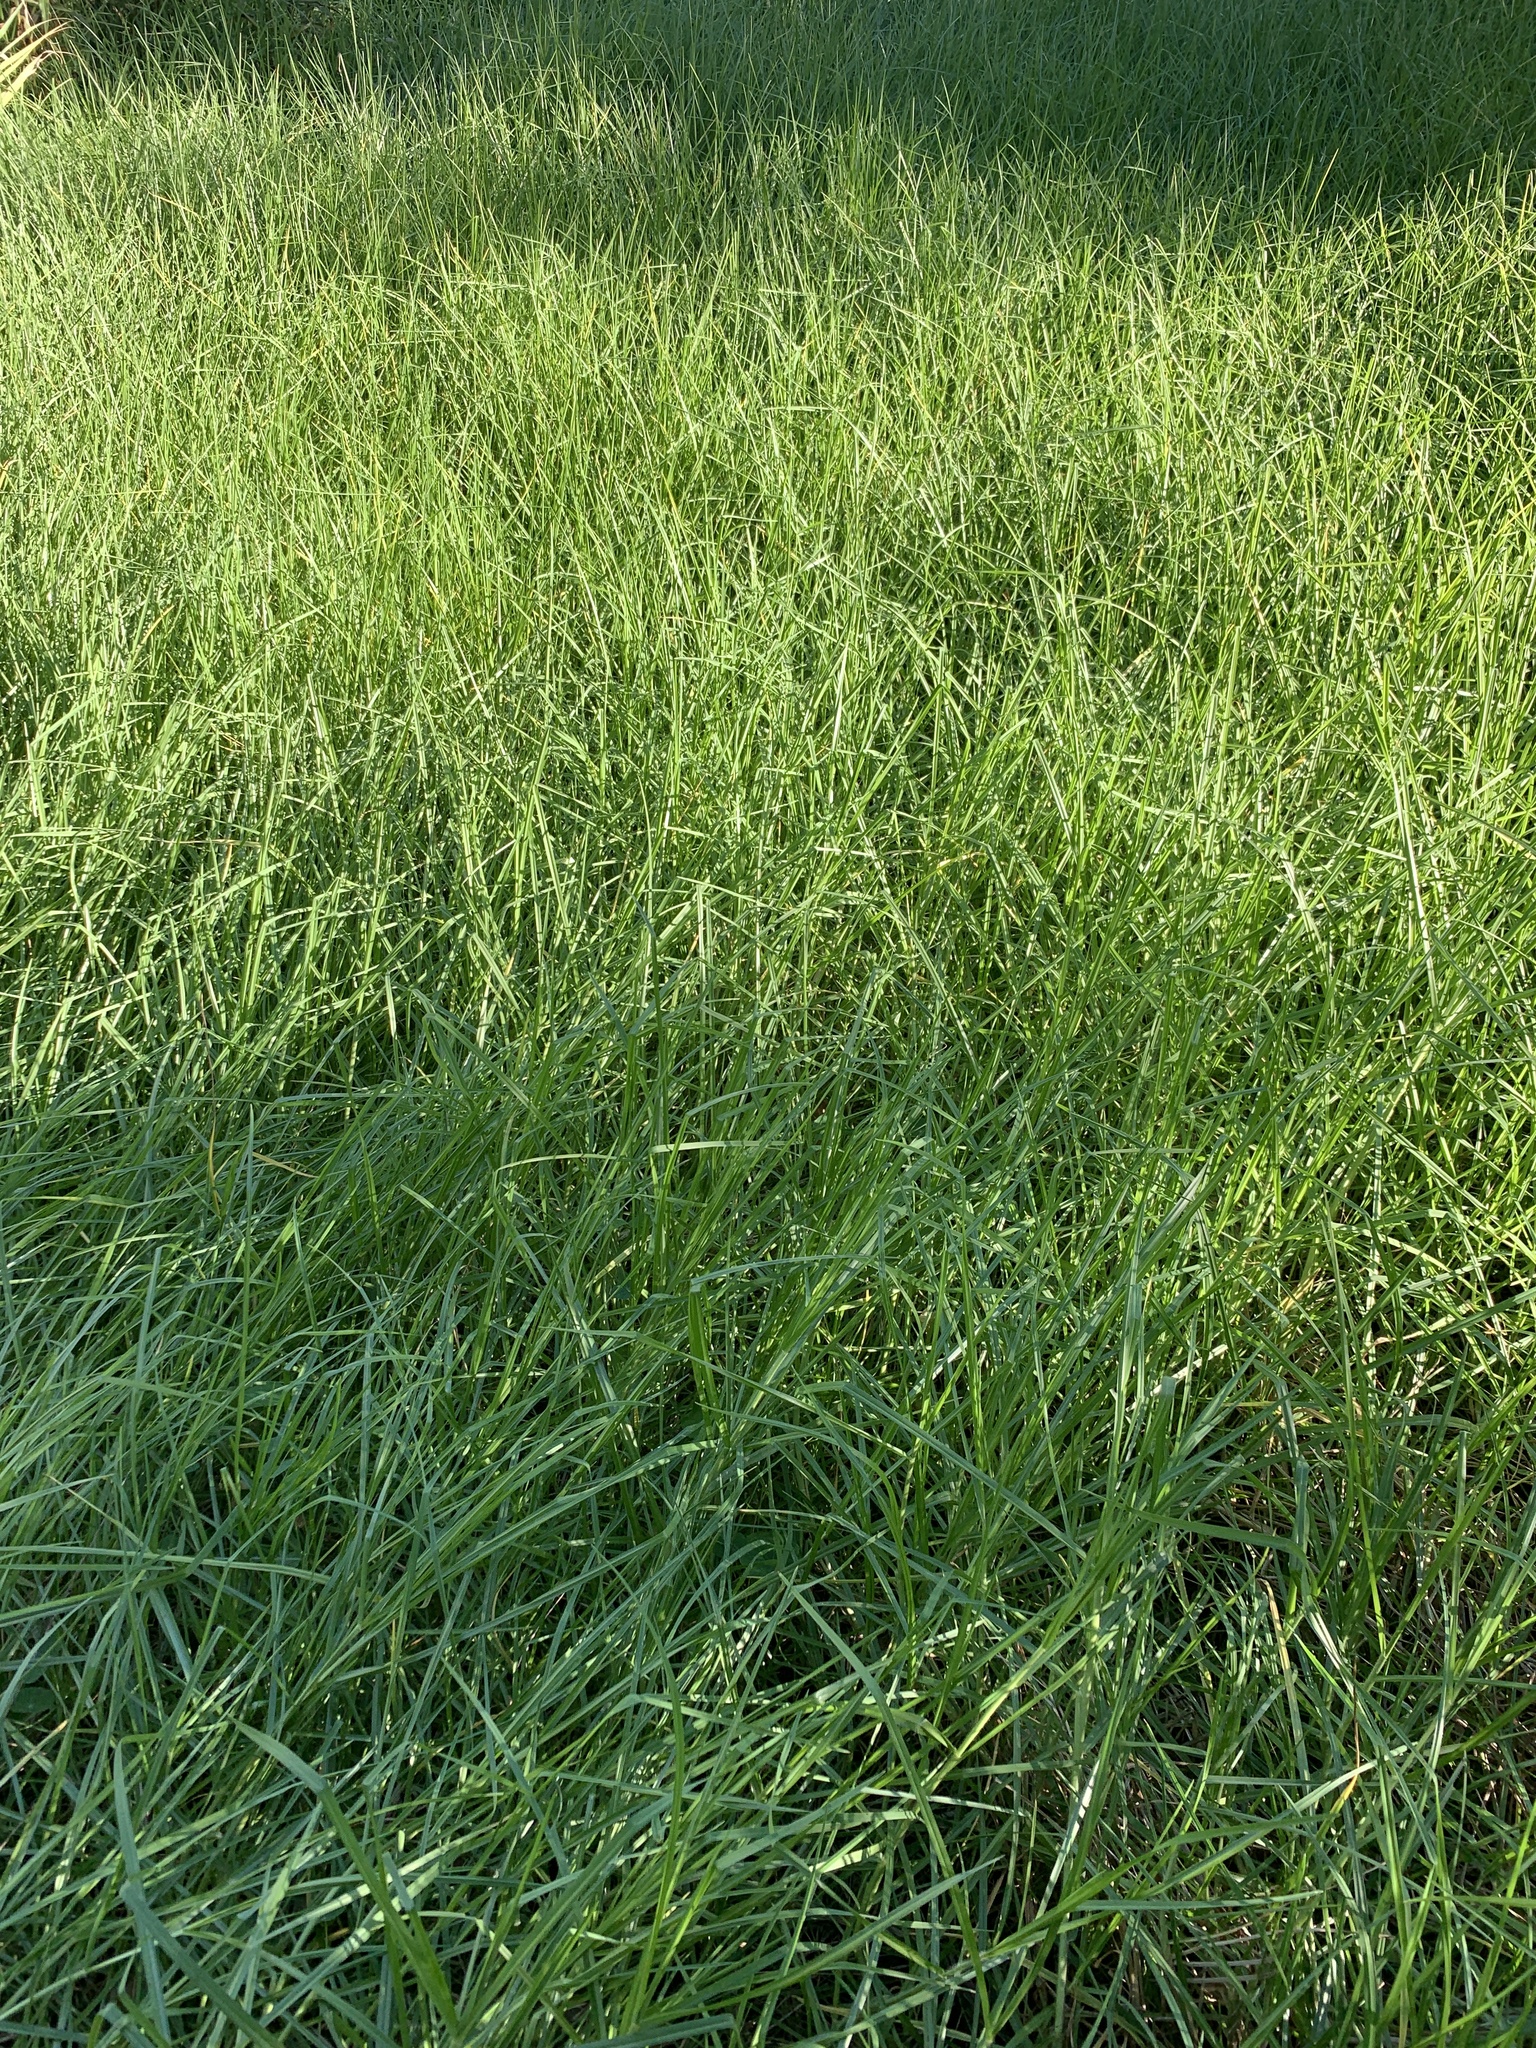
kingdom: Plantae
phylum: Tracheophyta
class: Liliopsida
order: Poales
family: Poaceae
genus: Cenchrus
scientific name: Cenchrus clandestinus
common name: Kikuyugrass
